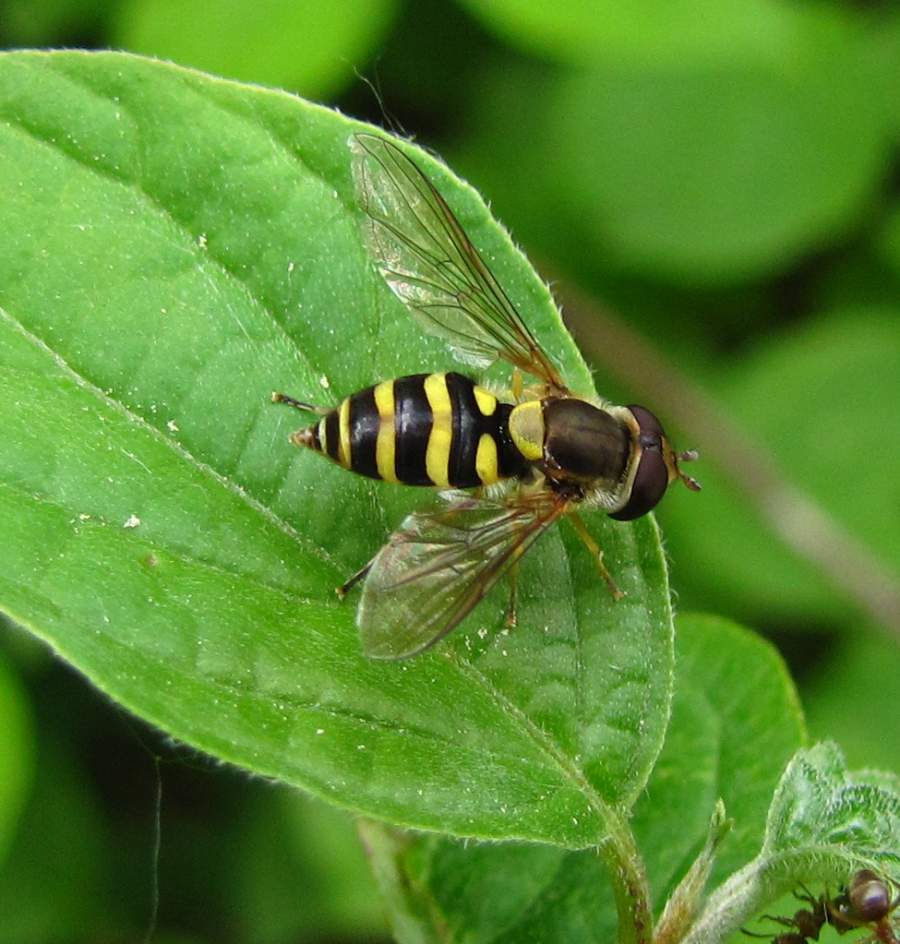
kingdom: Animalia
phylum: Arthropoda
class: Insecta
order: Diptera
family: Syrphidae
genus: Syrphus
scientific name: Syrphus
